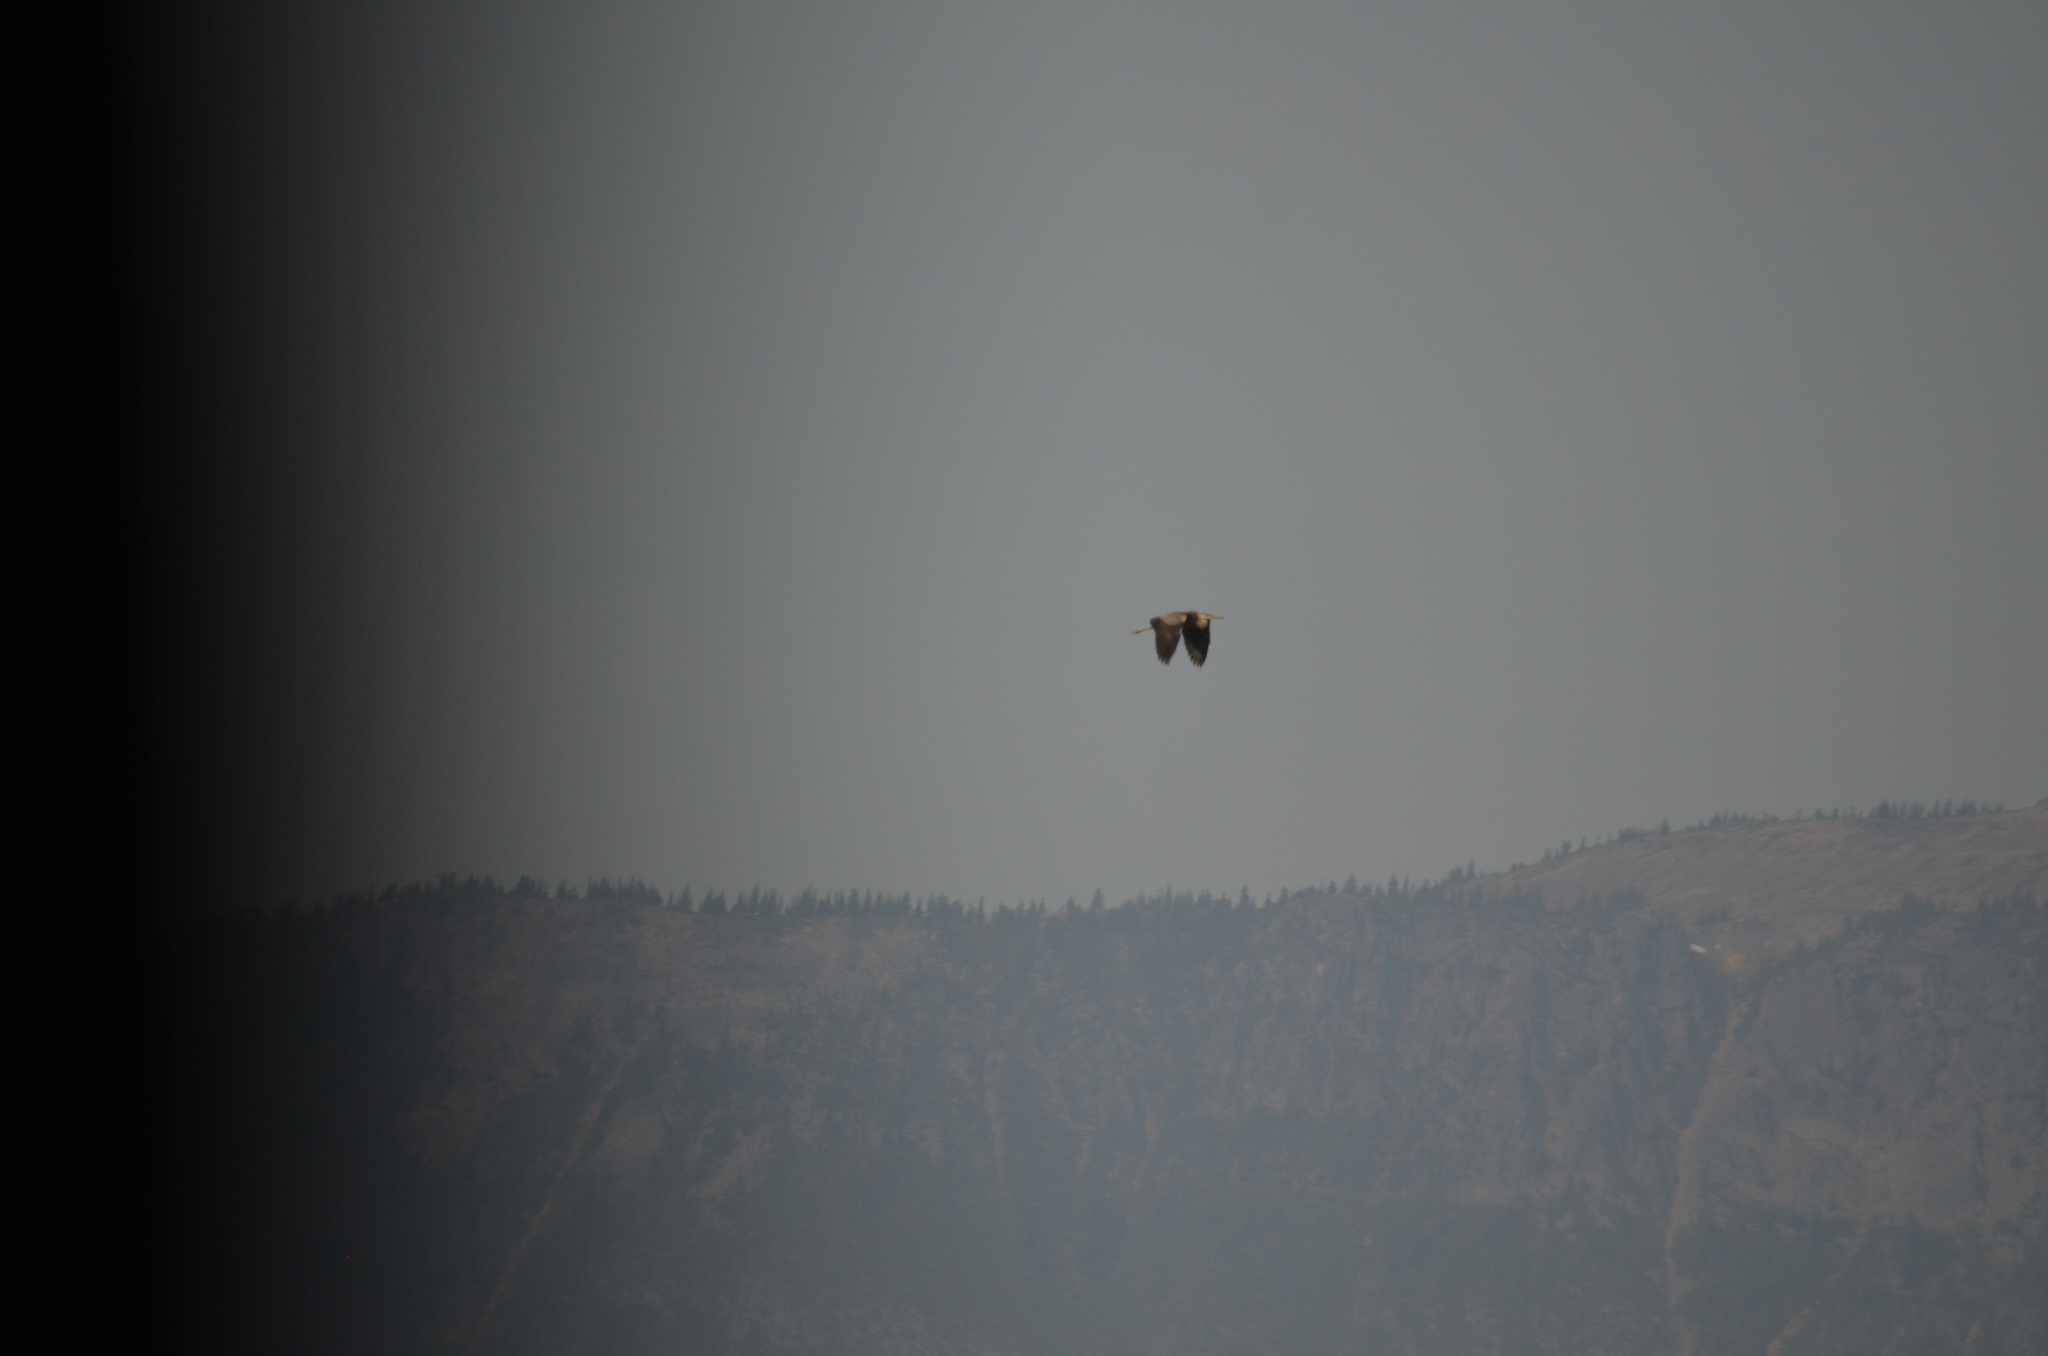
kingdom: Animalia
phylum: Chordata
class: Aves
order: Pelecaniformes
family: Ardeidae
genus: Ardea
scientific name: Ardea herodias
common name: Great blue heron
